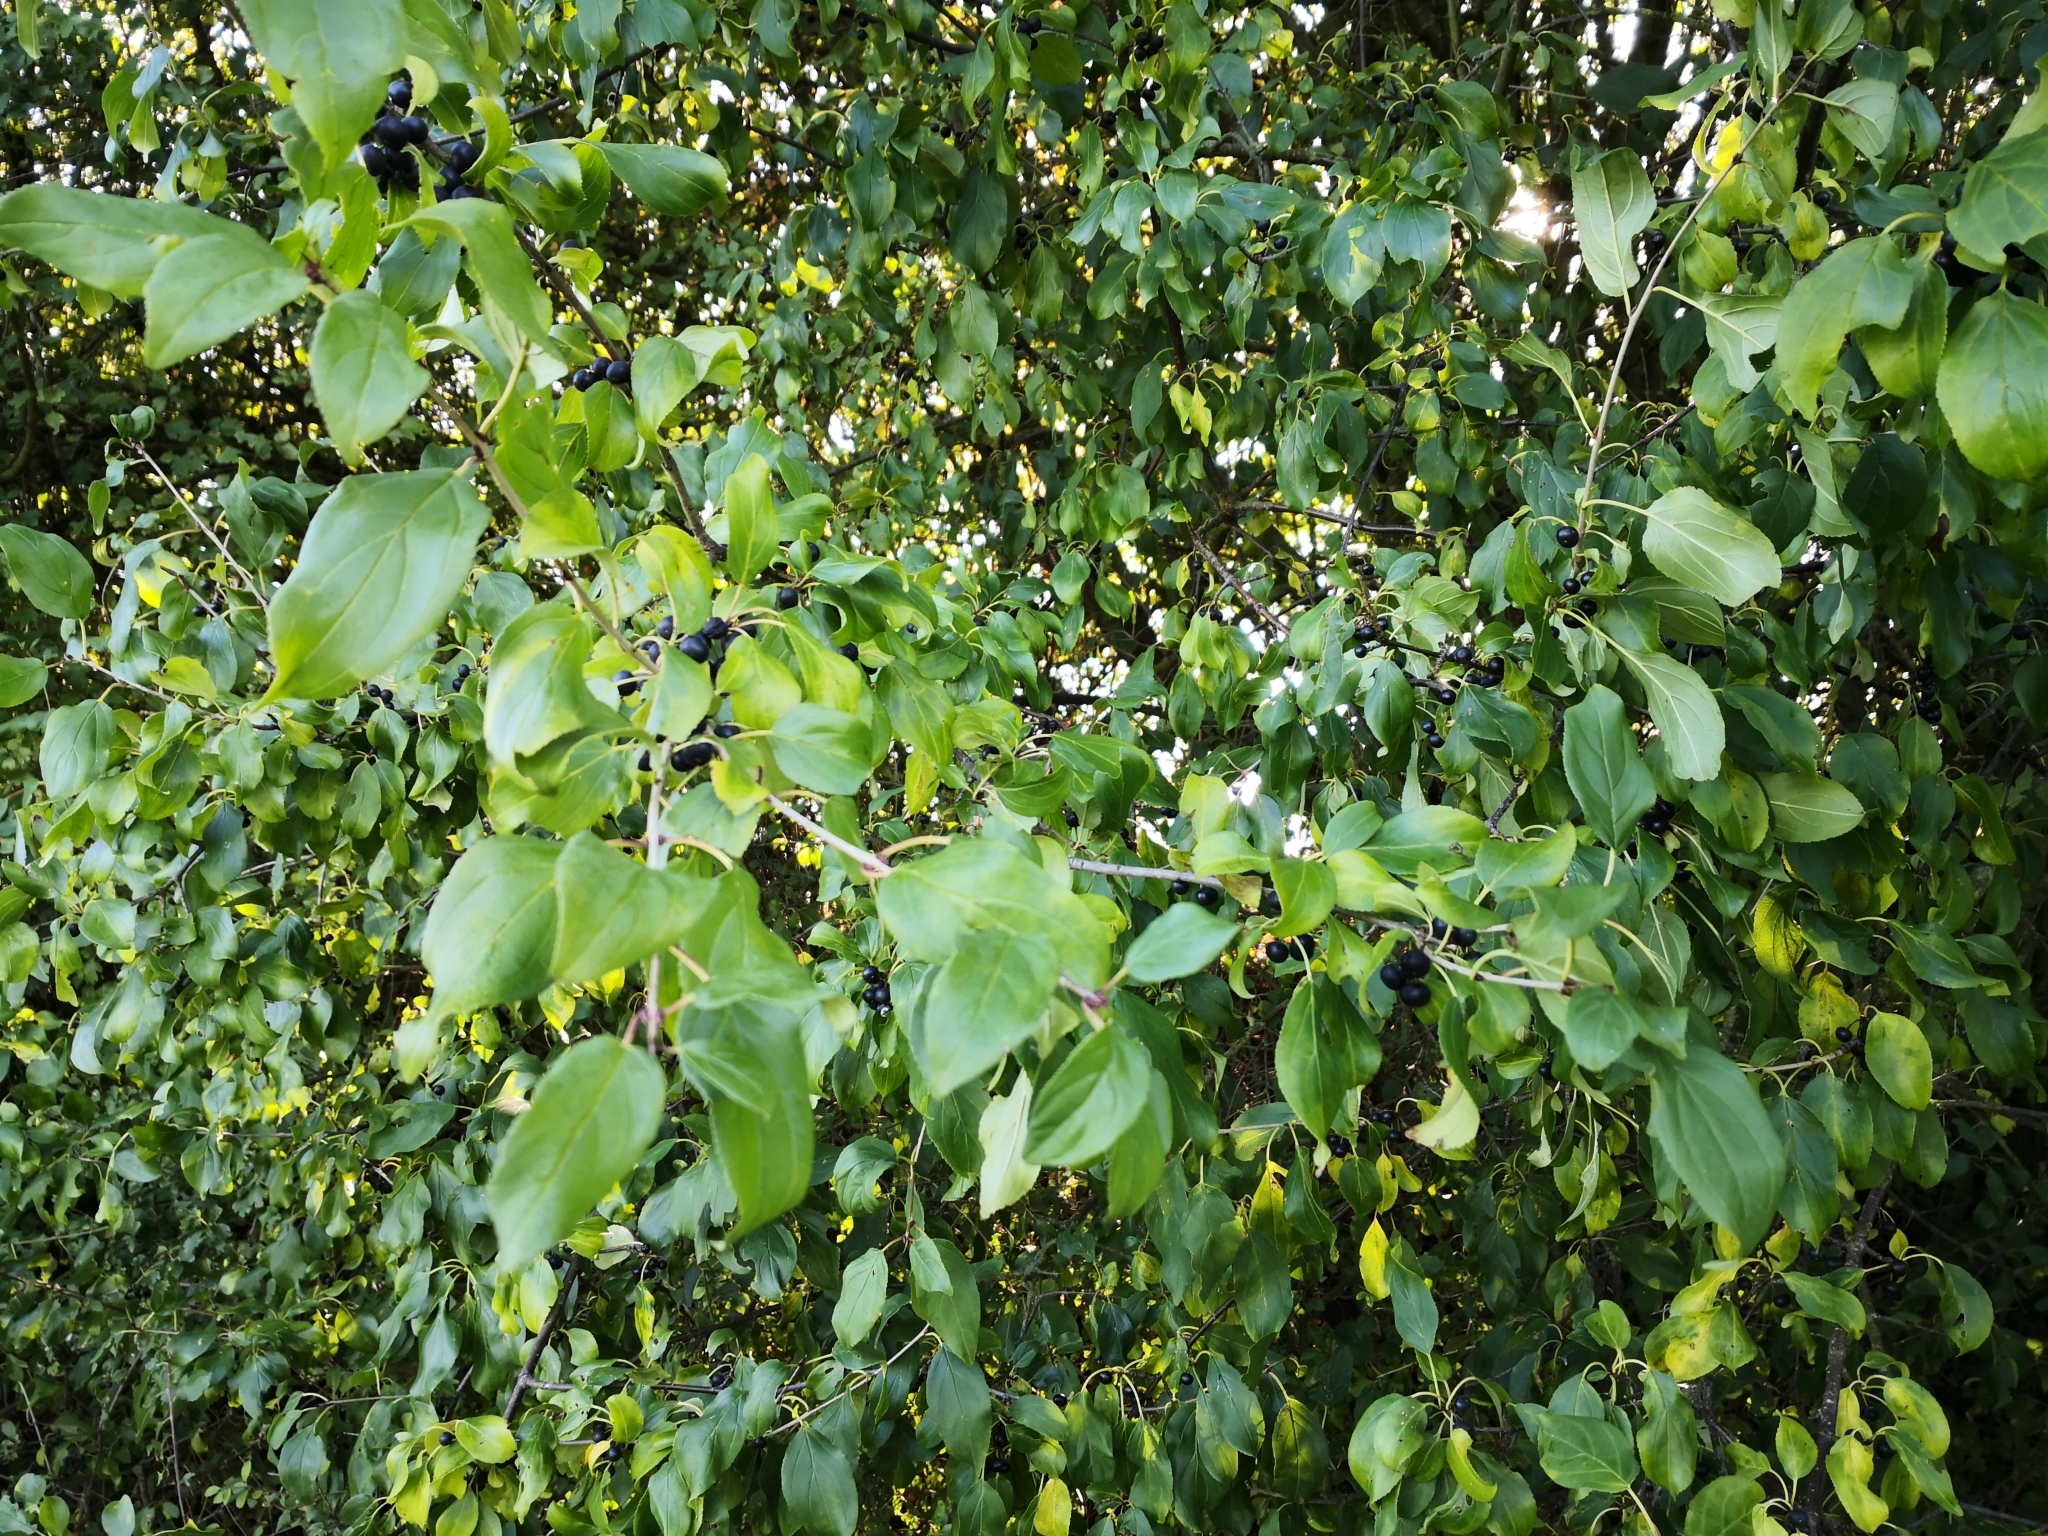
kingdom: Plantae
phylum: Tracheophyta
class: Magnoliopsida
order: Rosales
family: Rhamnaceae
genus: Rhamnus
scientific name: Rhamnus cathartica
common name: Common buckthorn
